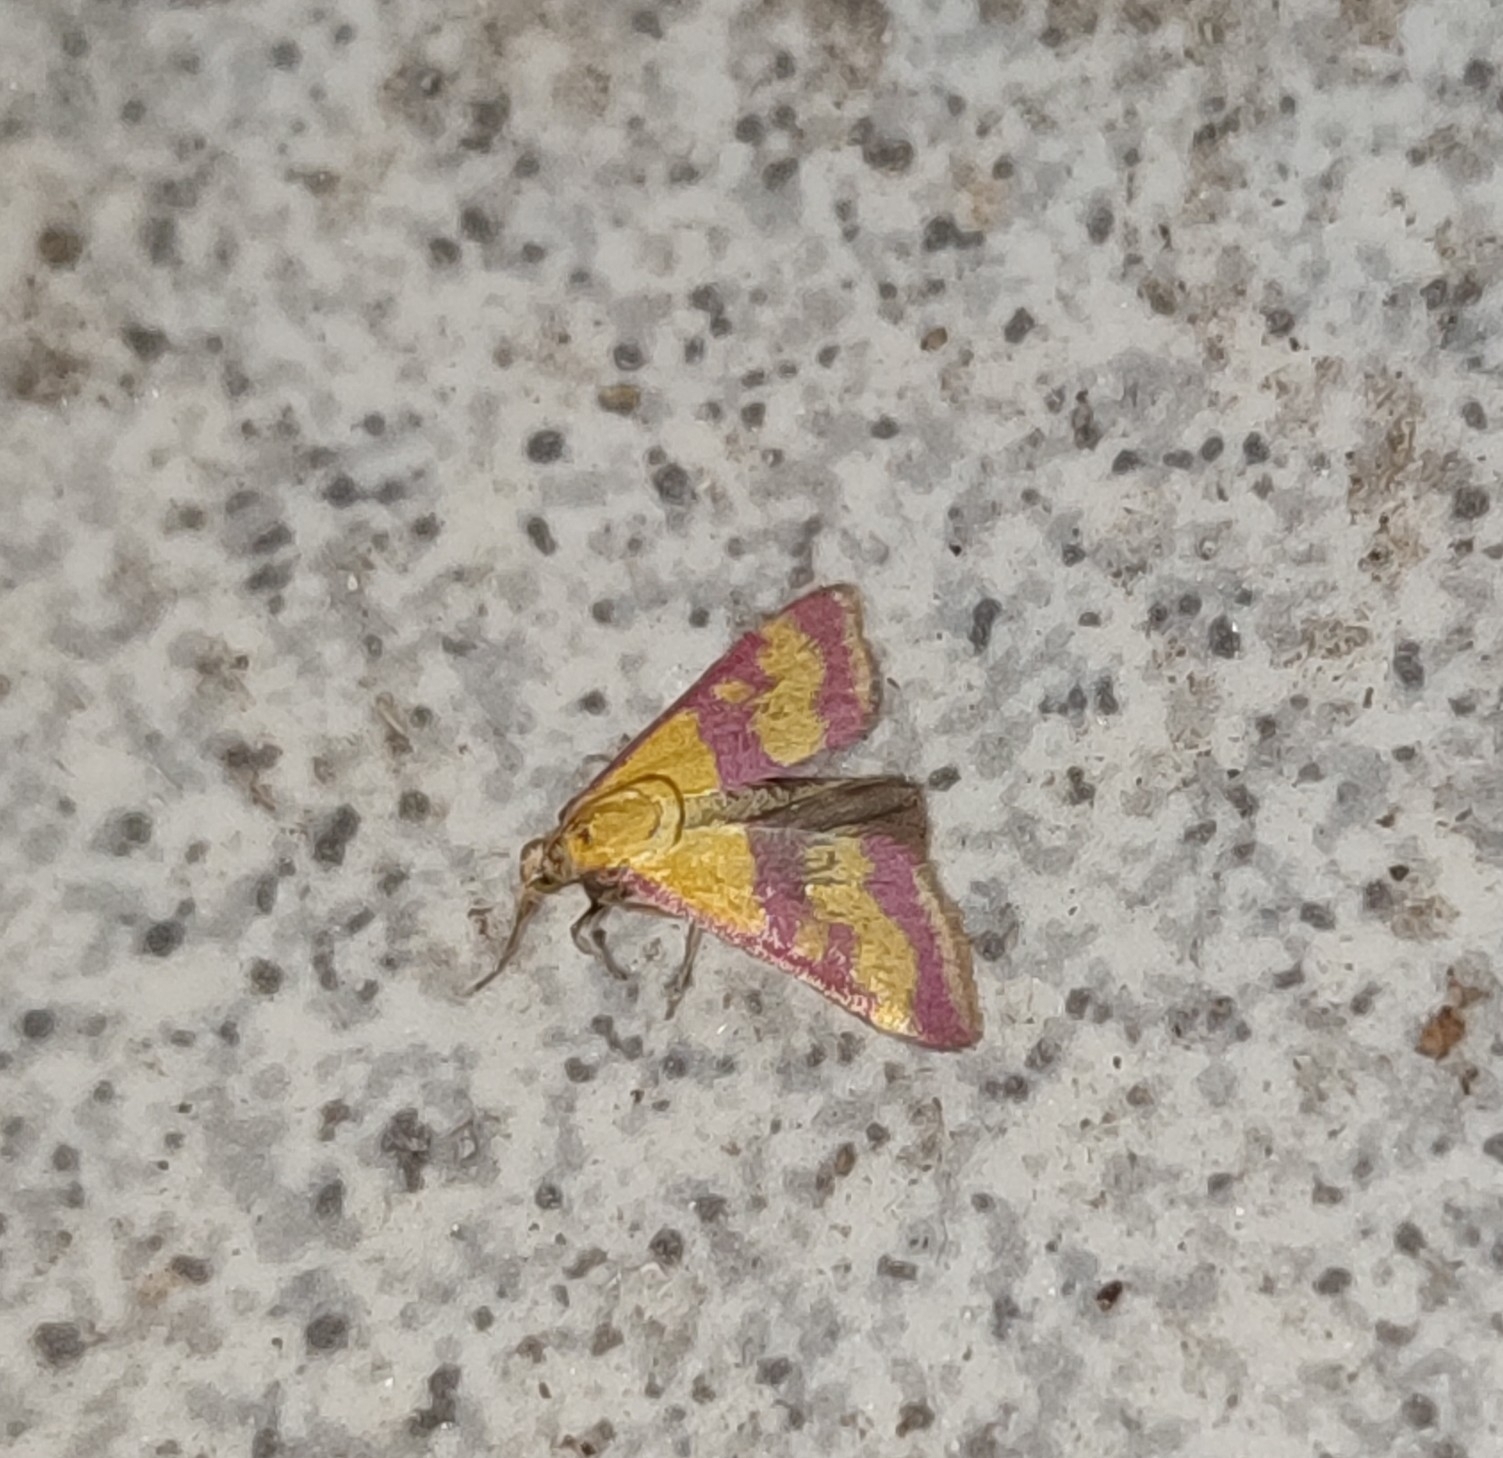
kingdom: Animalia
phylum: Arthropoda
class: Insecta
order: Lepidoptera
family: Crambidae
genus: Pyrausta
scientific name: Pyrausta sanguinalis
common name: Scarce crimson and gold
